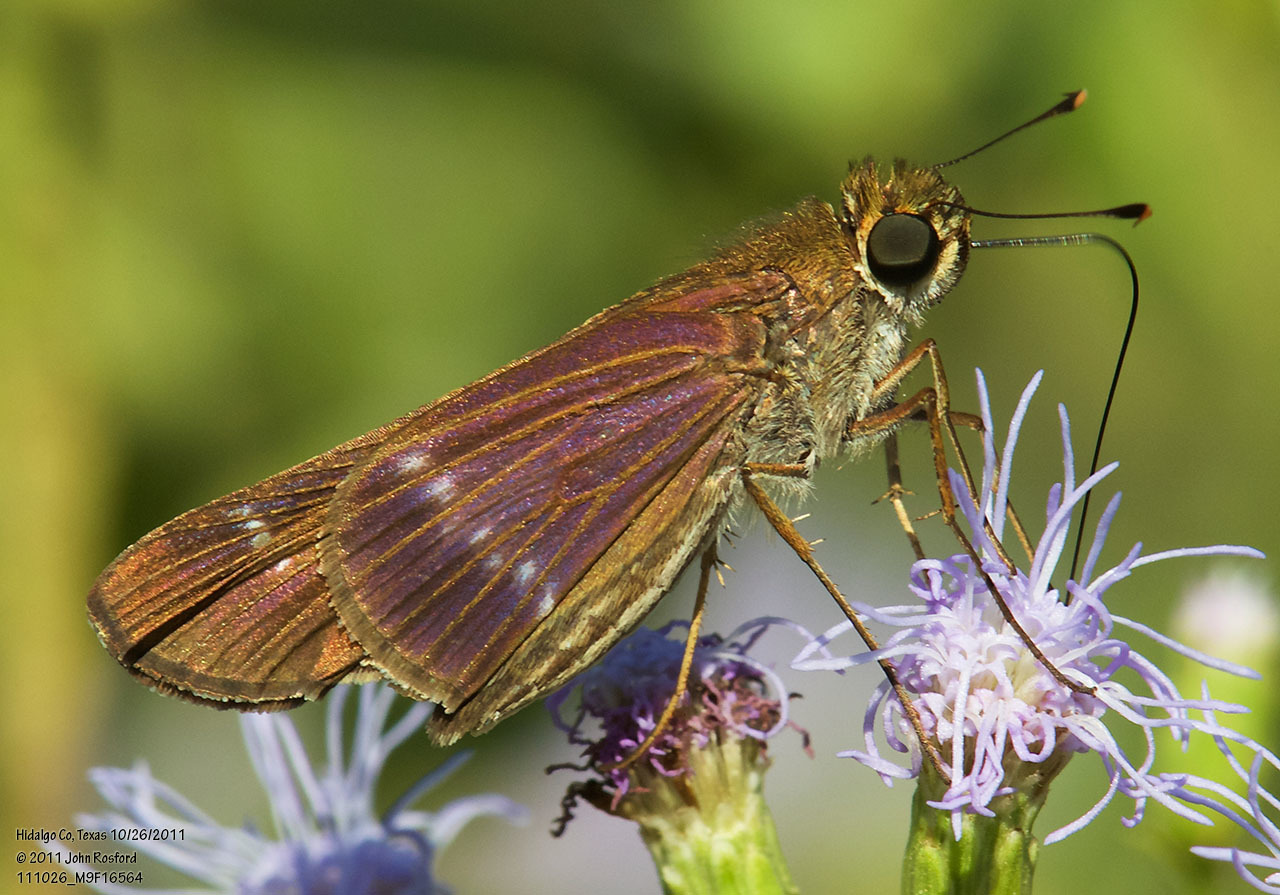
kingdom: Animalia
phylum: Arthropoda
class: Insecta
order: Lepidoptera
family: Hesperiidae
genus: Turesis
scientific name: Turesis lucas
